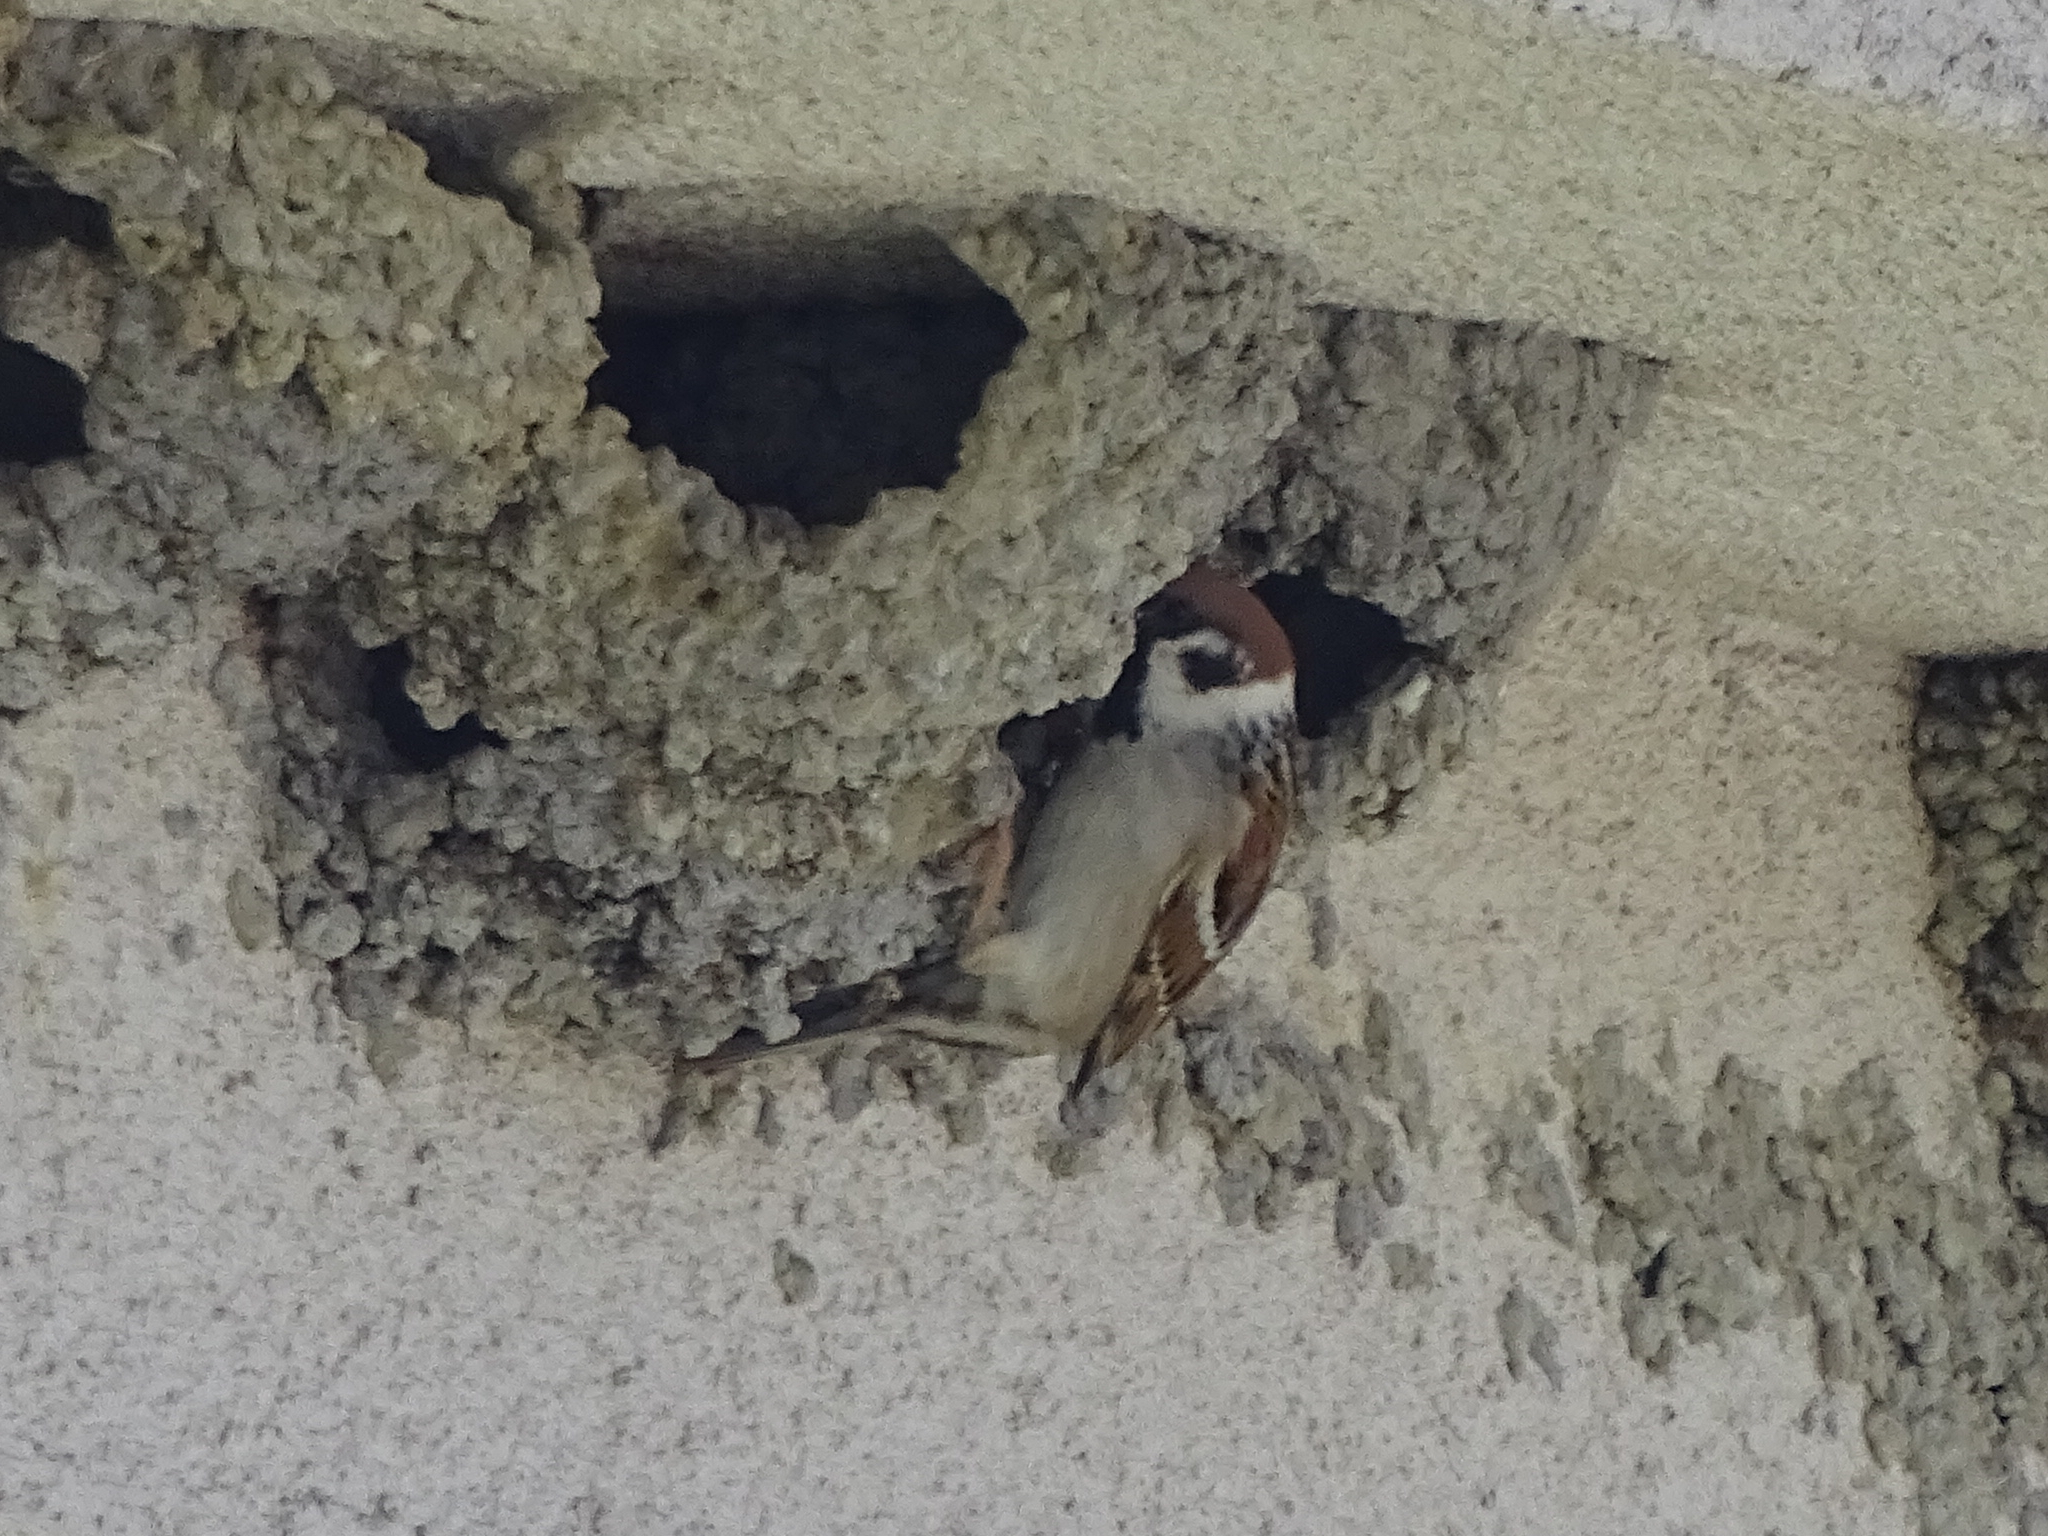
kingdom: Animalia
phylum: Chordata
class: Aves
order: Passeriformes
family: Passeridae
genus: Passer
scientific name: Passer montanus
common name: Eurasian tree sparrow
